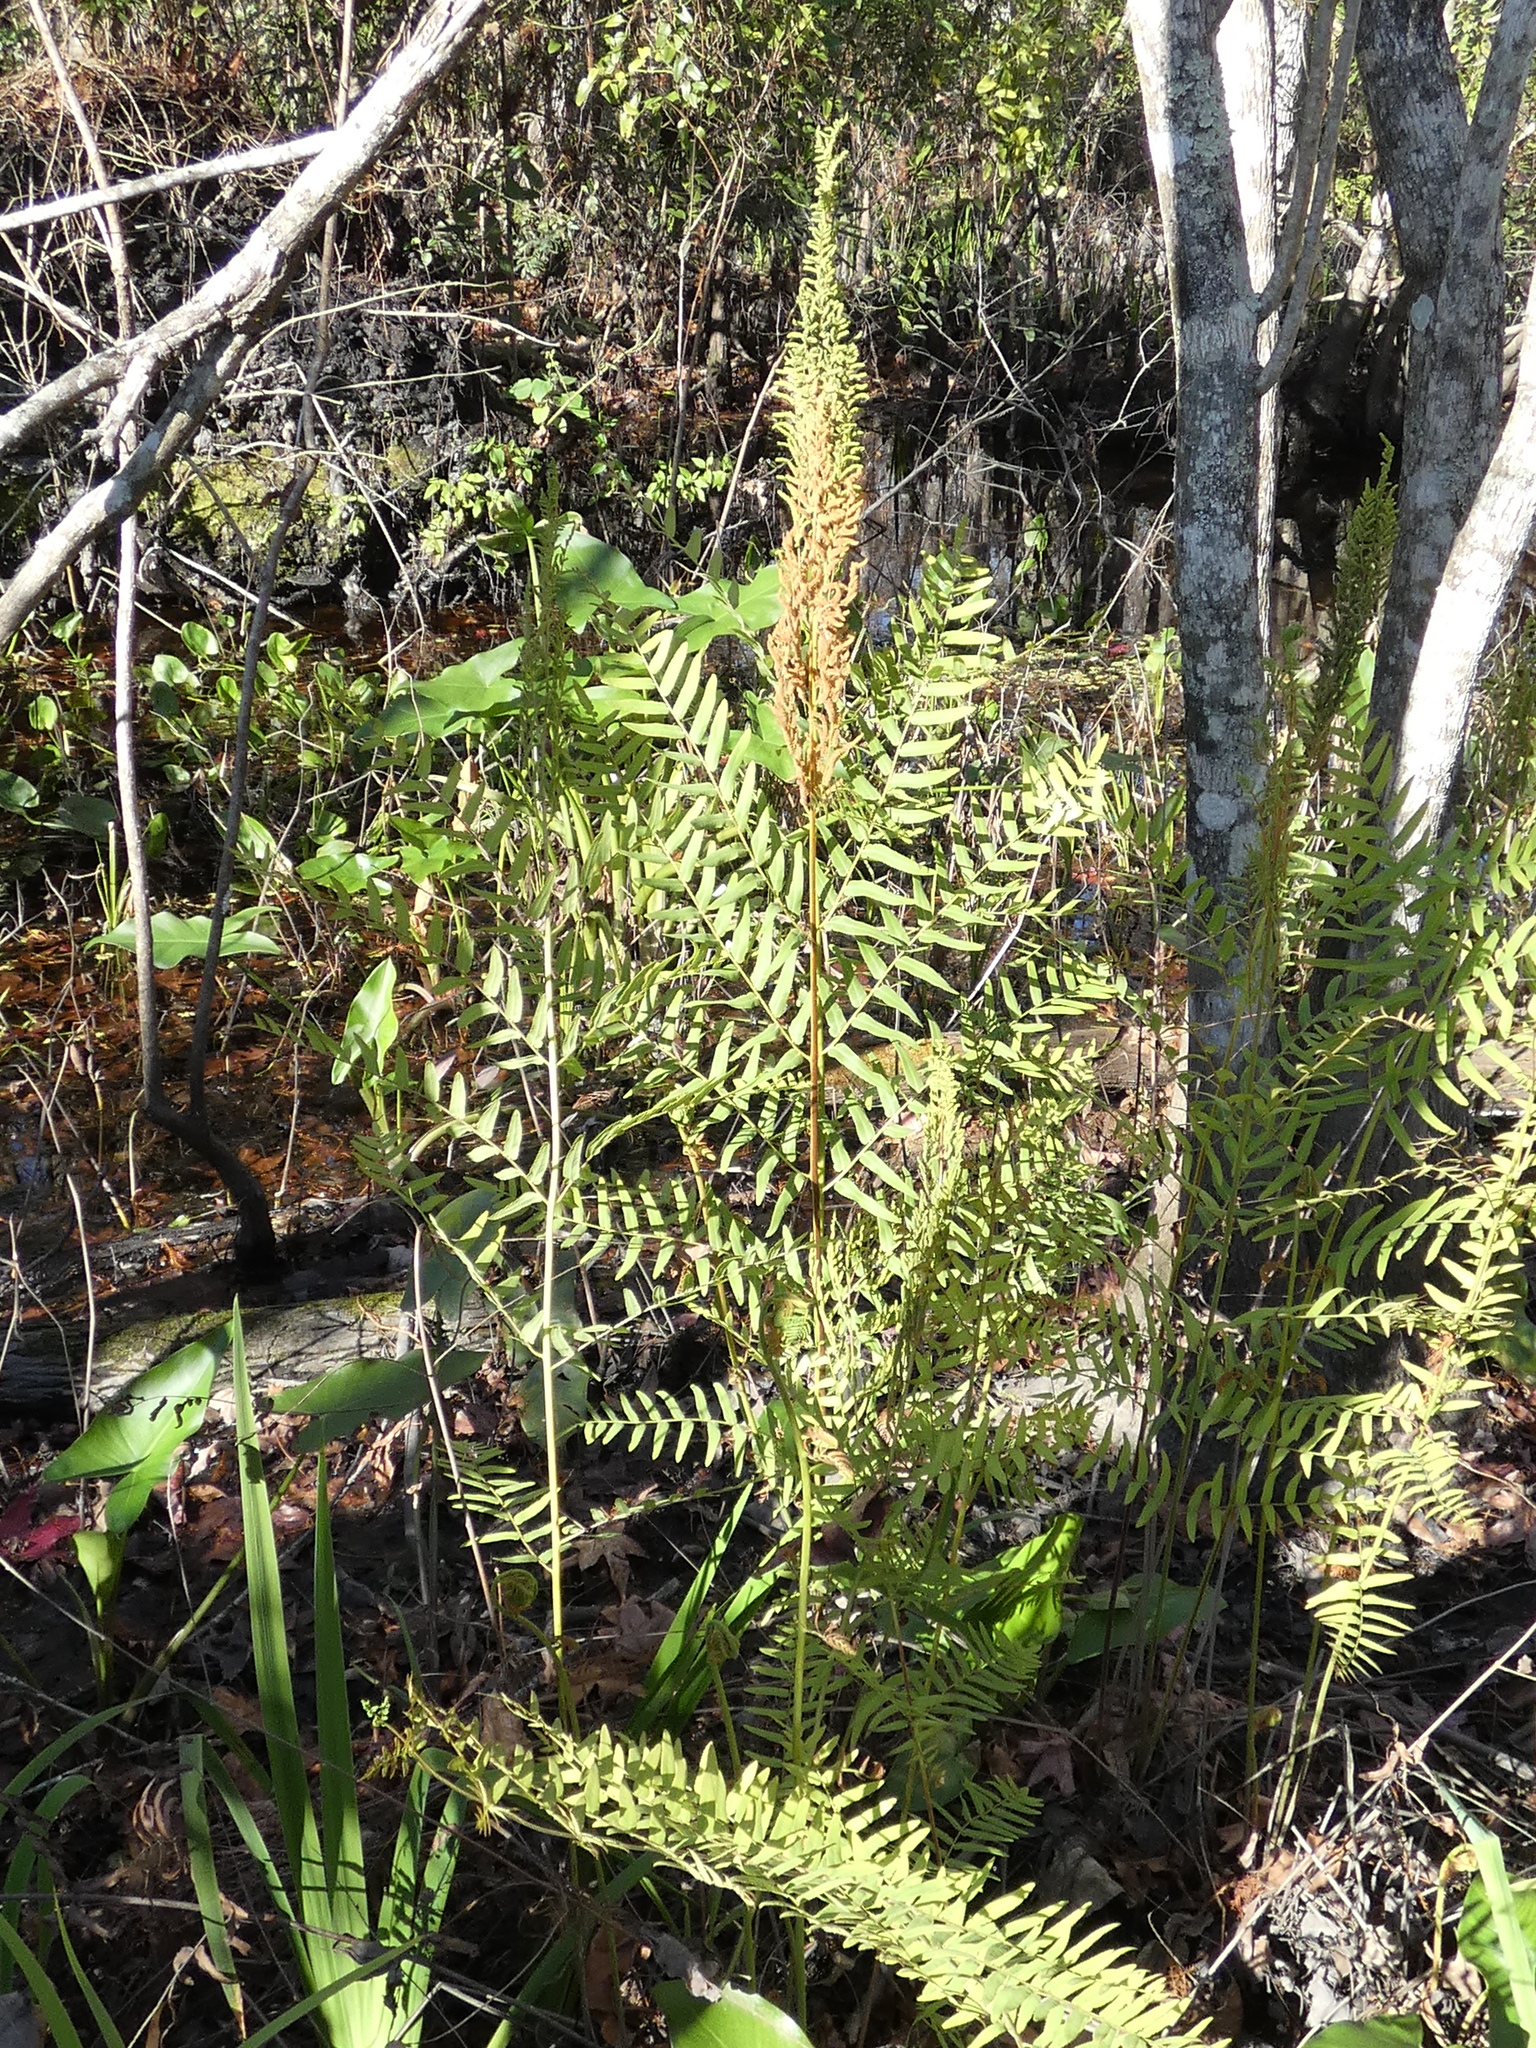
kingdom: Plantae
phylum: Tracheophyta
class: Polypodiopsida
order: Osmundales
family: Osmundaceae
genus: Osmunda
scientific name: Osmunda spectabilis
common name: American royal fern
